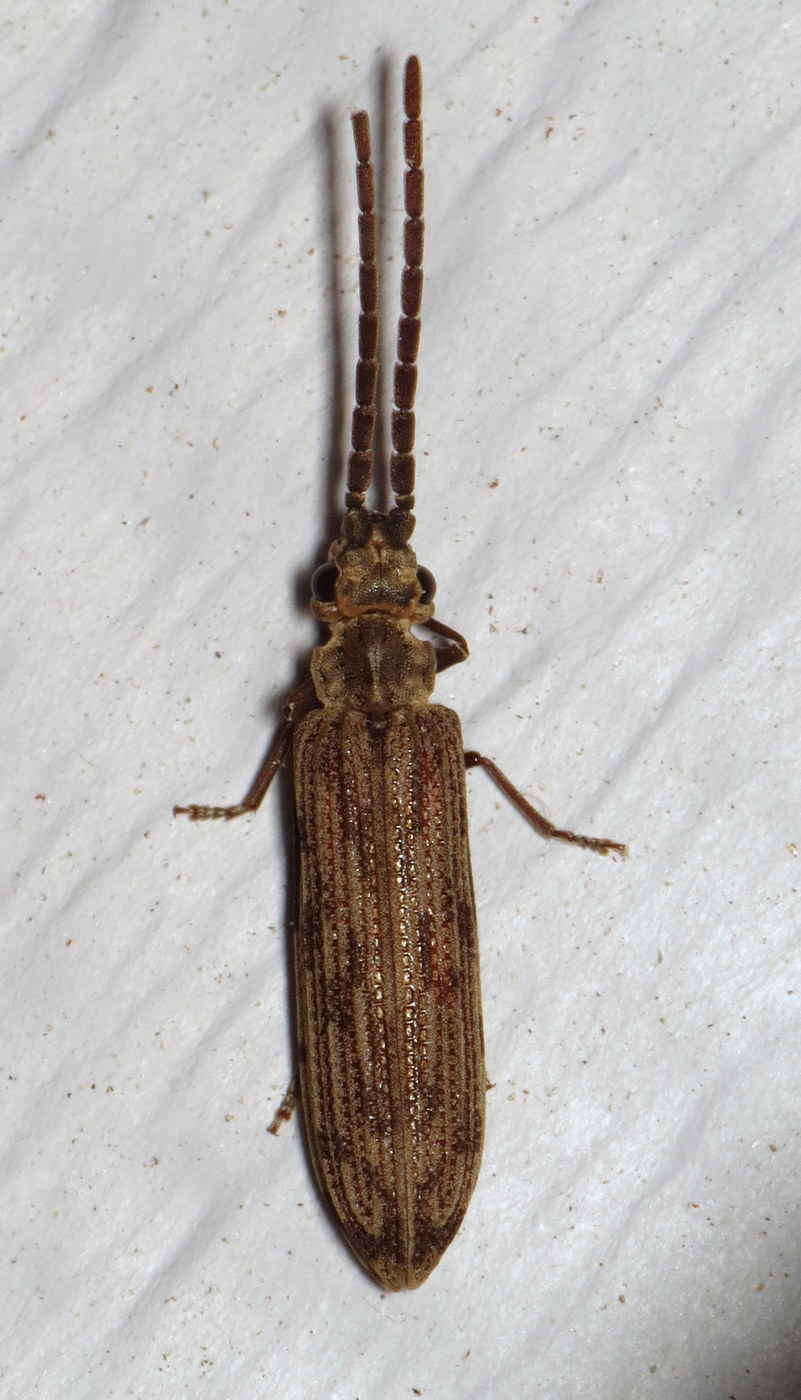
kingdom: Animalia
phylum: Arthropoda
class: Insecta
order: Coleoptera
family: Cupedidae
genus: Tenomerga
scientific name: Tenomerga cinerea
